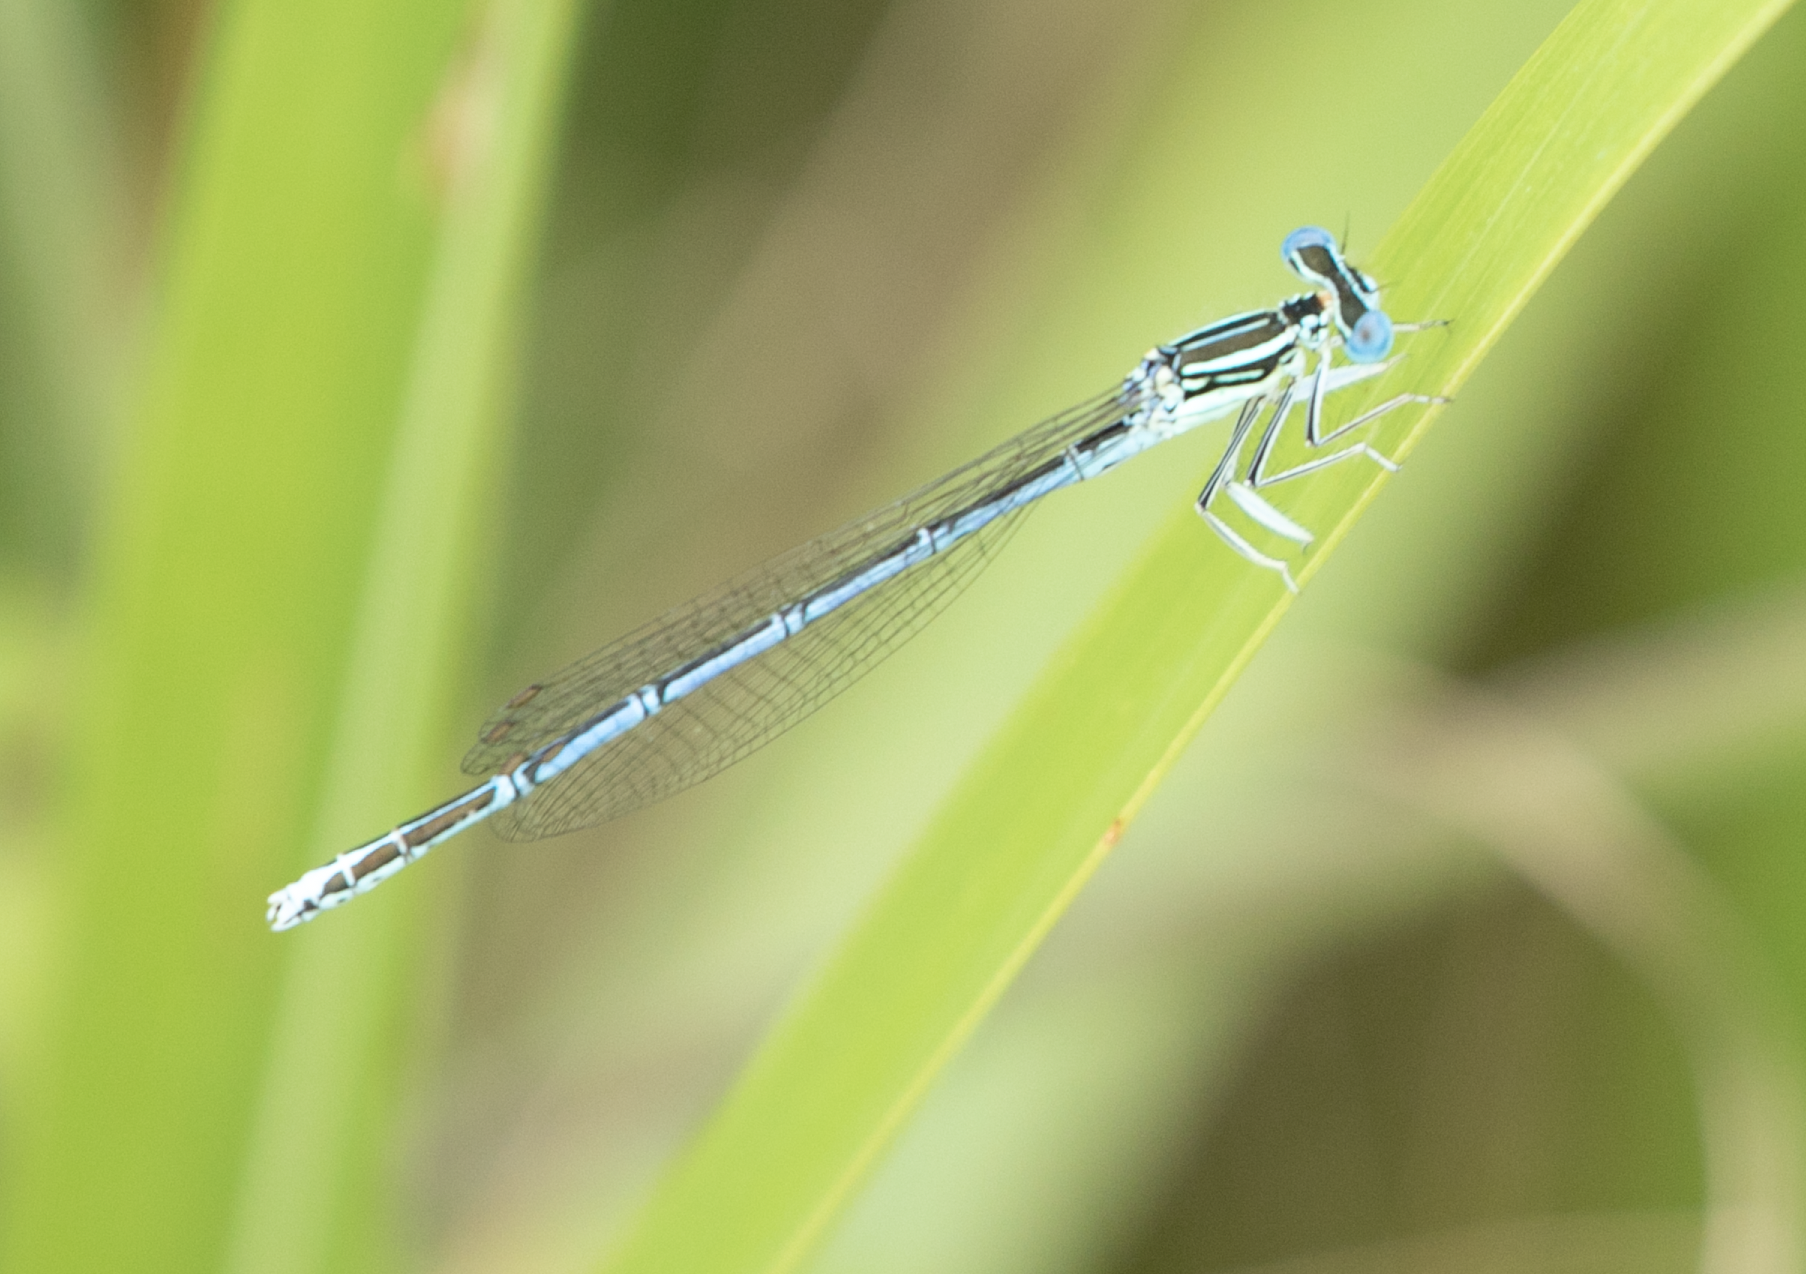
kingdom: Animalia
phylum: Arthropoda
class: Insecta
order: Odonata
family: Platycnemididae
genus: Platycnemis
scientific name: Platycnemis pennipes
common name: White-legged damselfly
